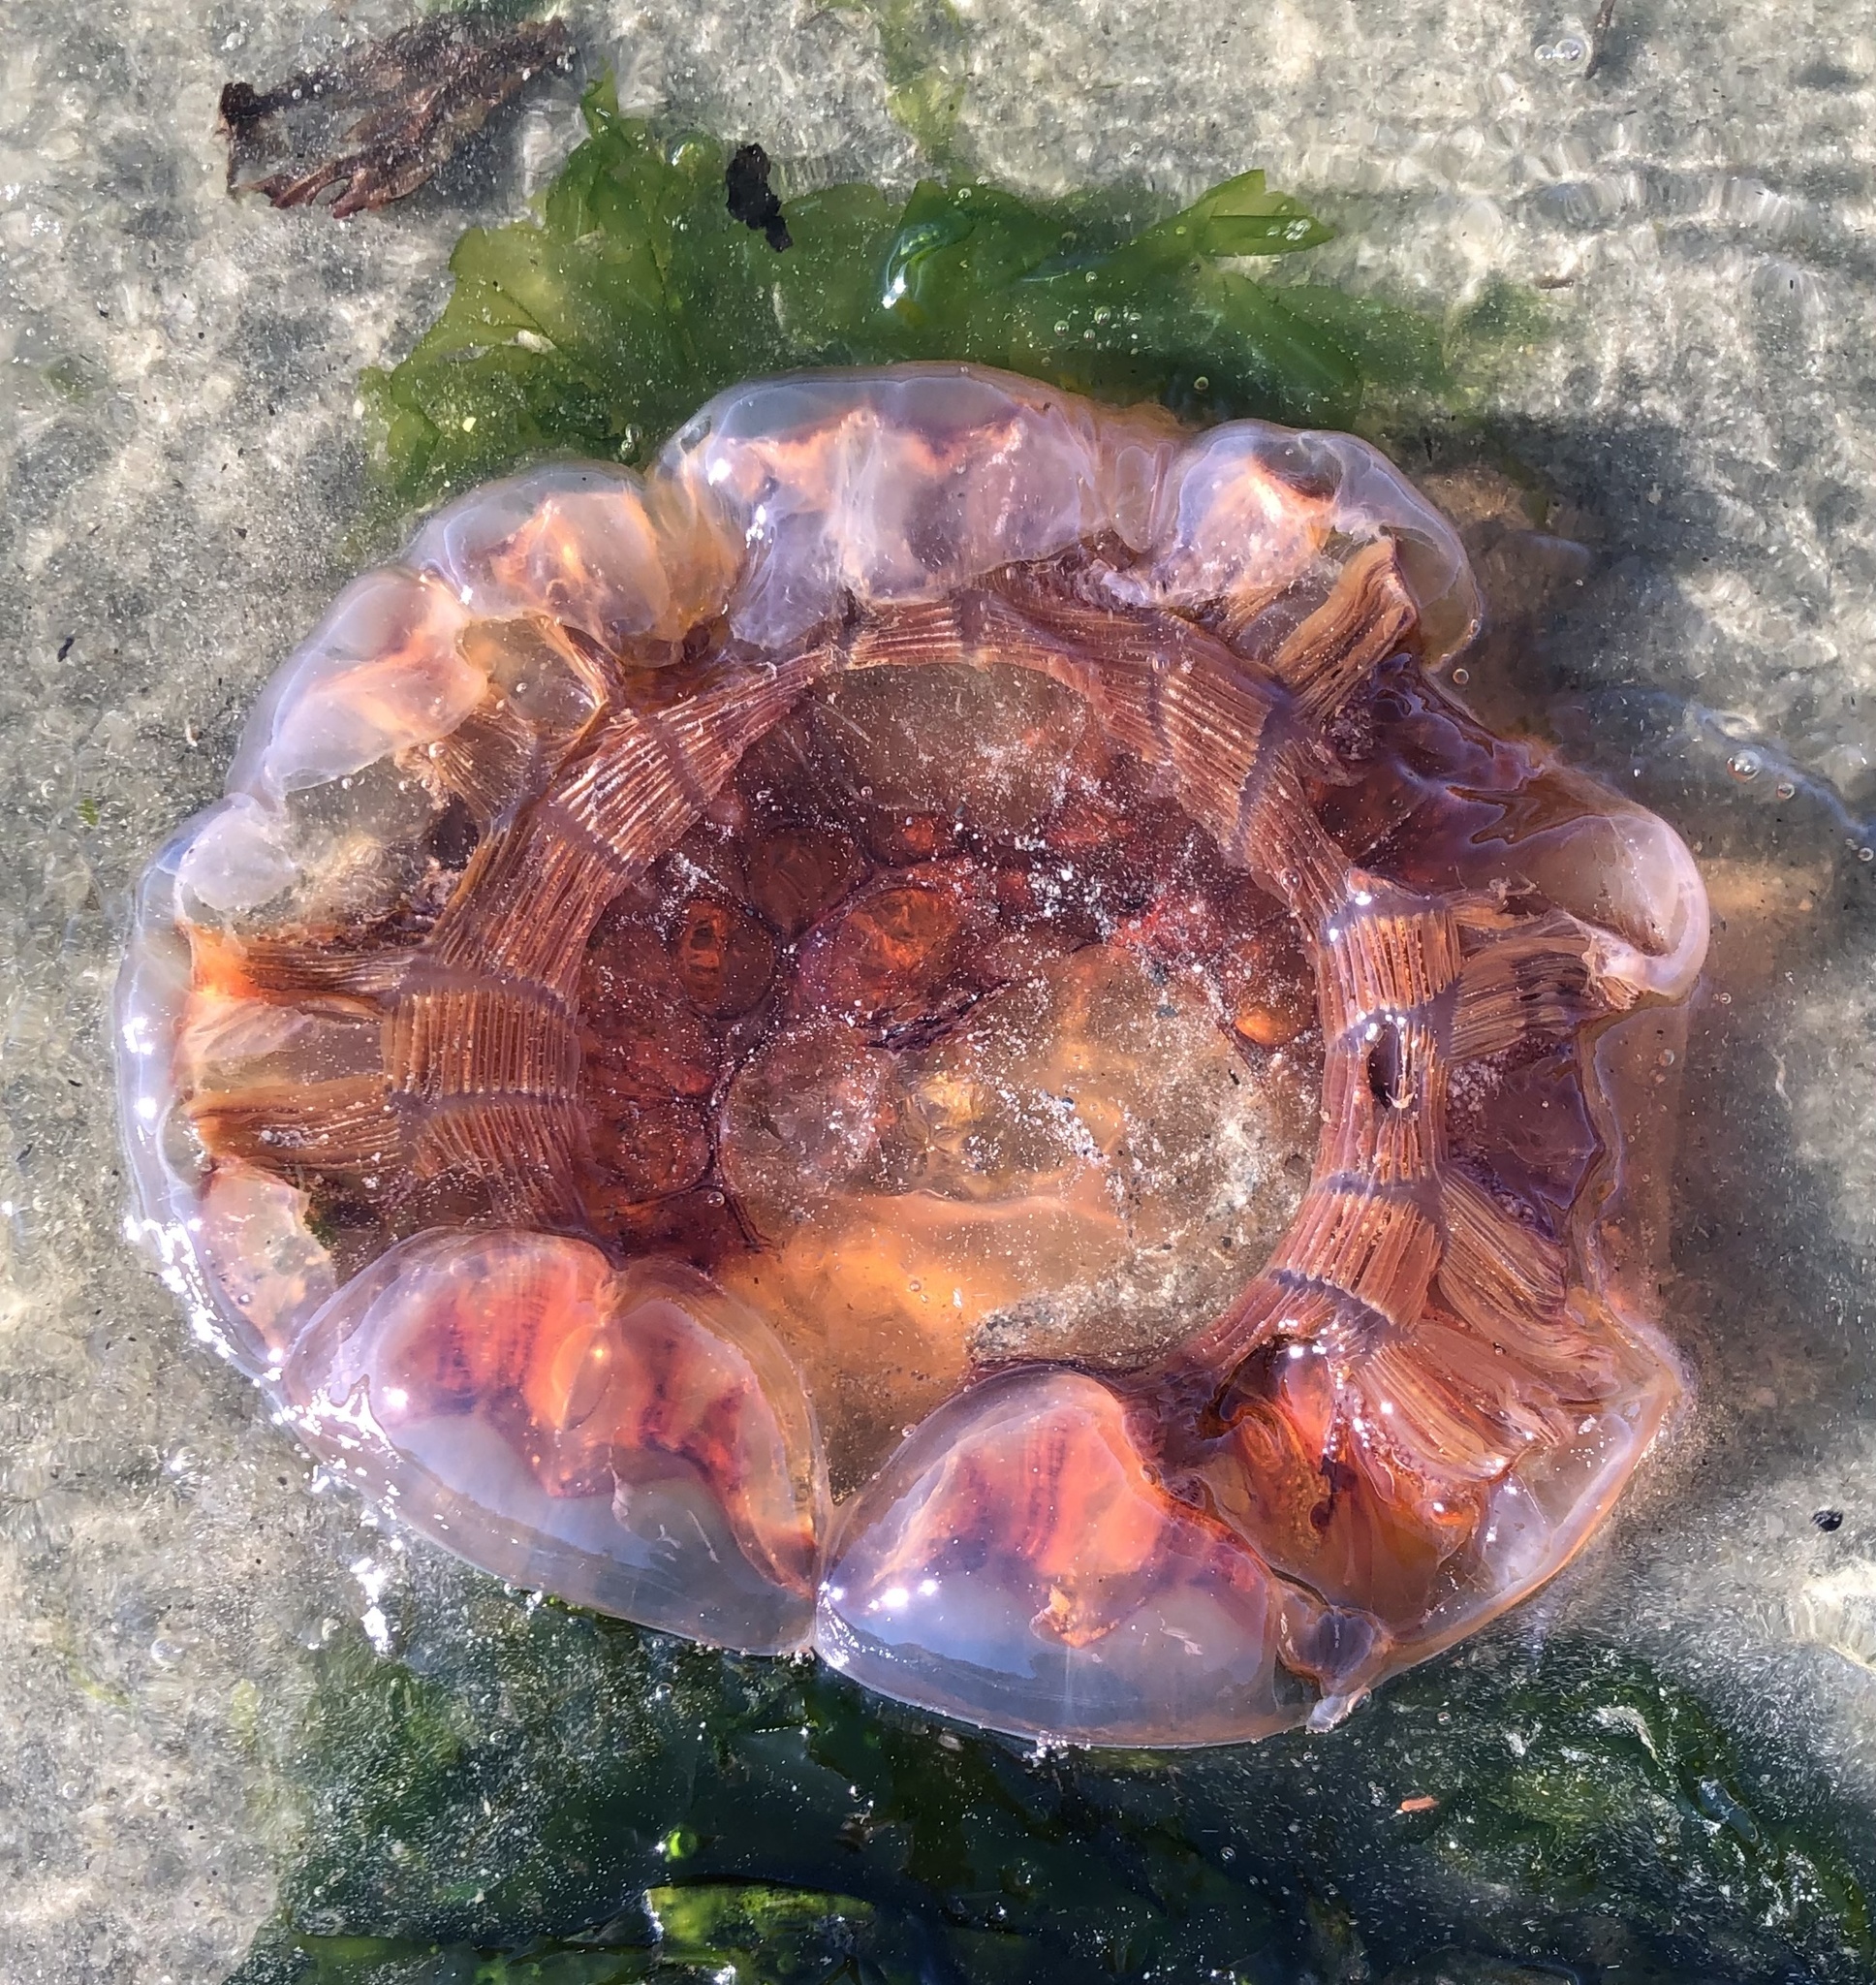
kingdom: Animalia
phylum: Cnidaria
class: Scyphozoa
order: Semaeostomeae
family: Cyaneidae
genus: Cyanea
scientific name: Cyanea ferruginea
